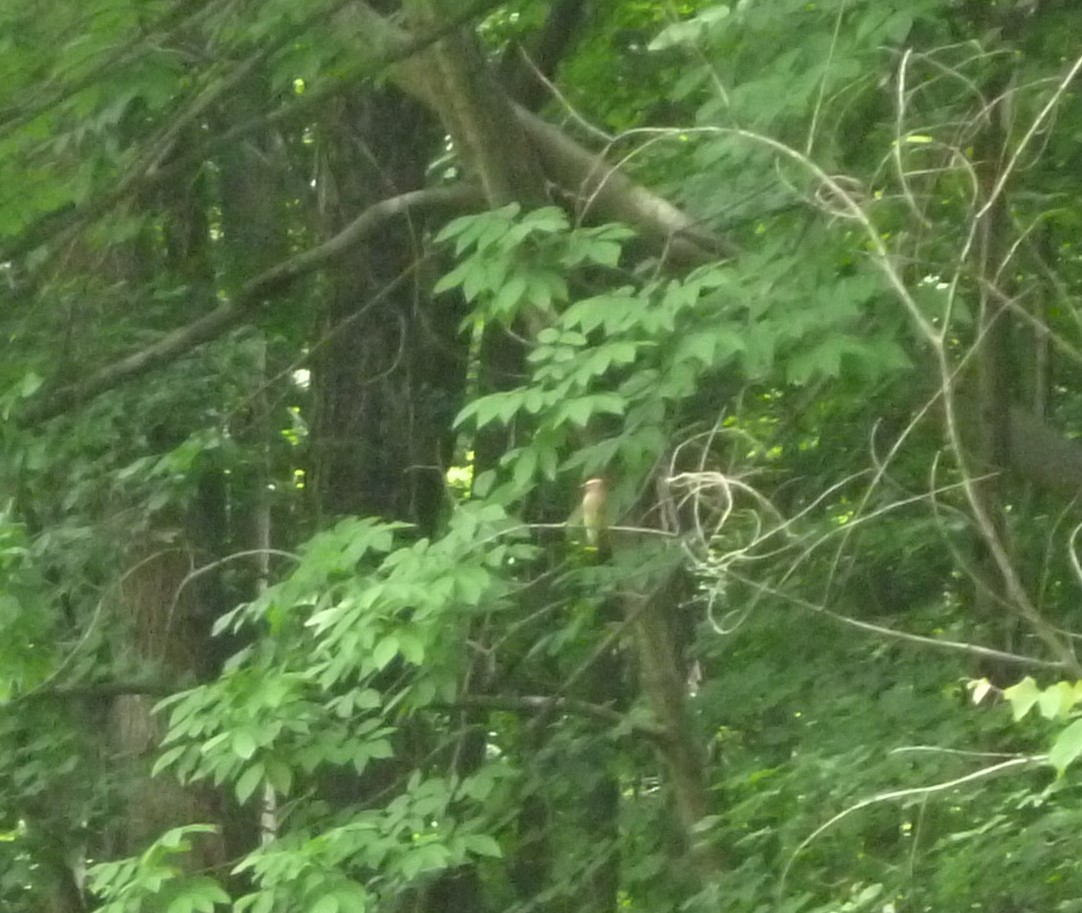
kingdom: Animalia
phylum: Chordata
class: Aves
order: Passeriformes
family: Bombycillidae
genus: Bombycilla
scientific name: Bombycilla cedrorum
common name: Cedar waxwing
